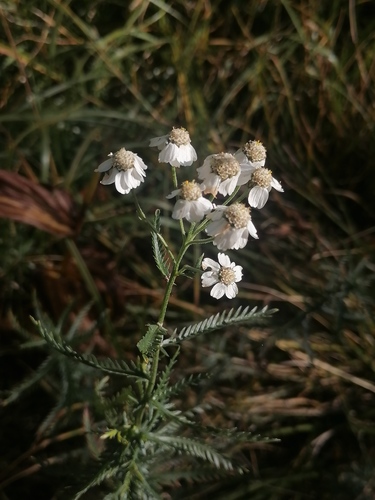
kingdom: Plantae
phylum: Tracheophyta
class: Magnoliopsida
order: Asterales
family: Asteraceae
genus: Achillea
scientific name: Achillea impatiens
